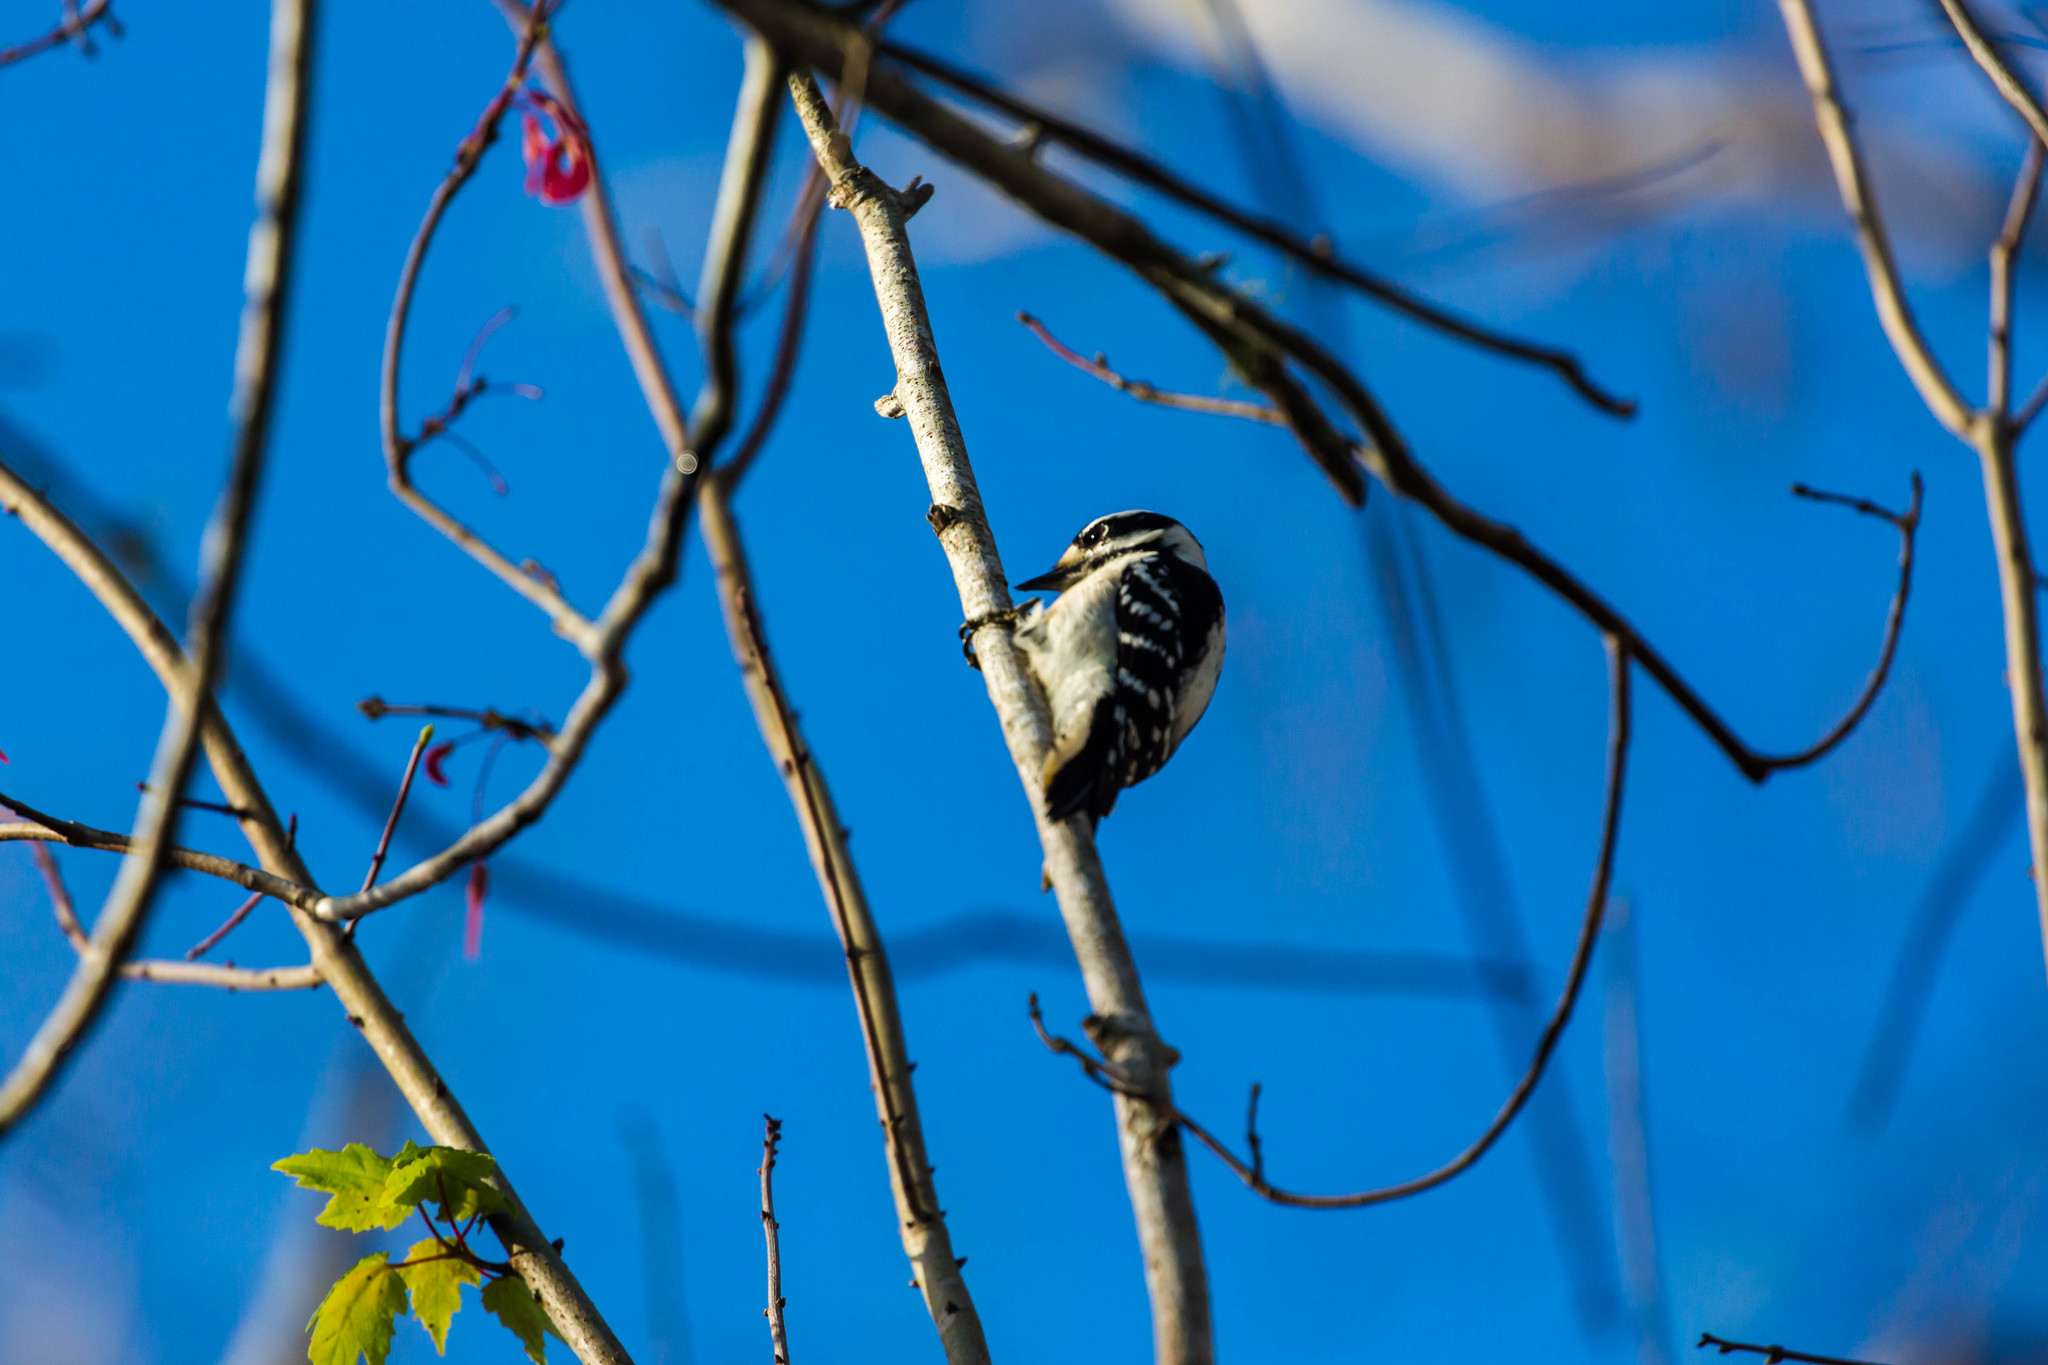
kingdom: Animalia
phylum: Chordata
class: Aves
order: Piciformes
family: Picidae
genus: Dryobates
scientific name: Dryobates pubescens
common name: Downy woodpecker
